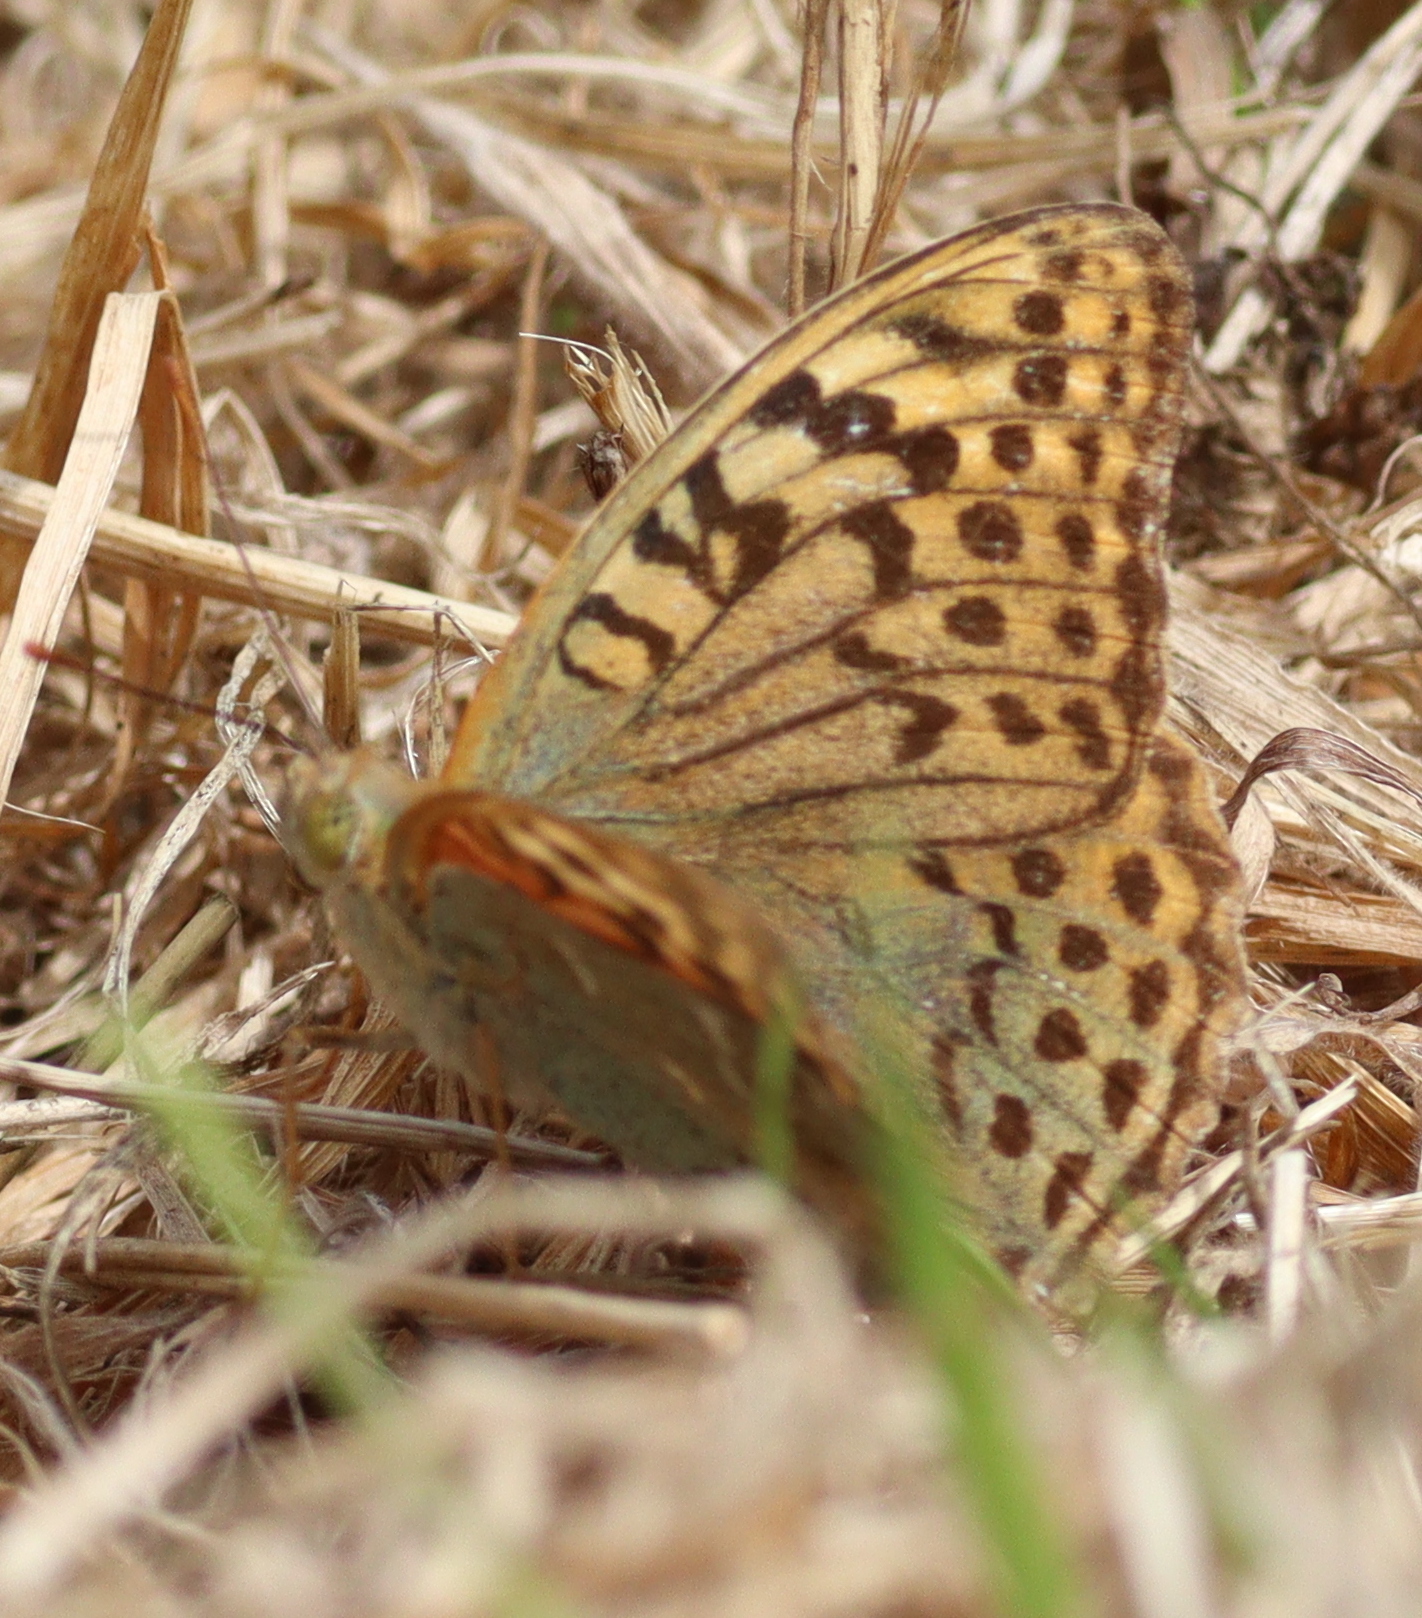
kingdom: Animalia
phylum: Arthropoda
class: Insecta
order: Lepidoptera
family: Nymphalidae
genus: Damora
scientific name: Damora pandora
